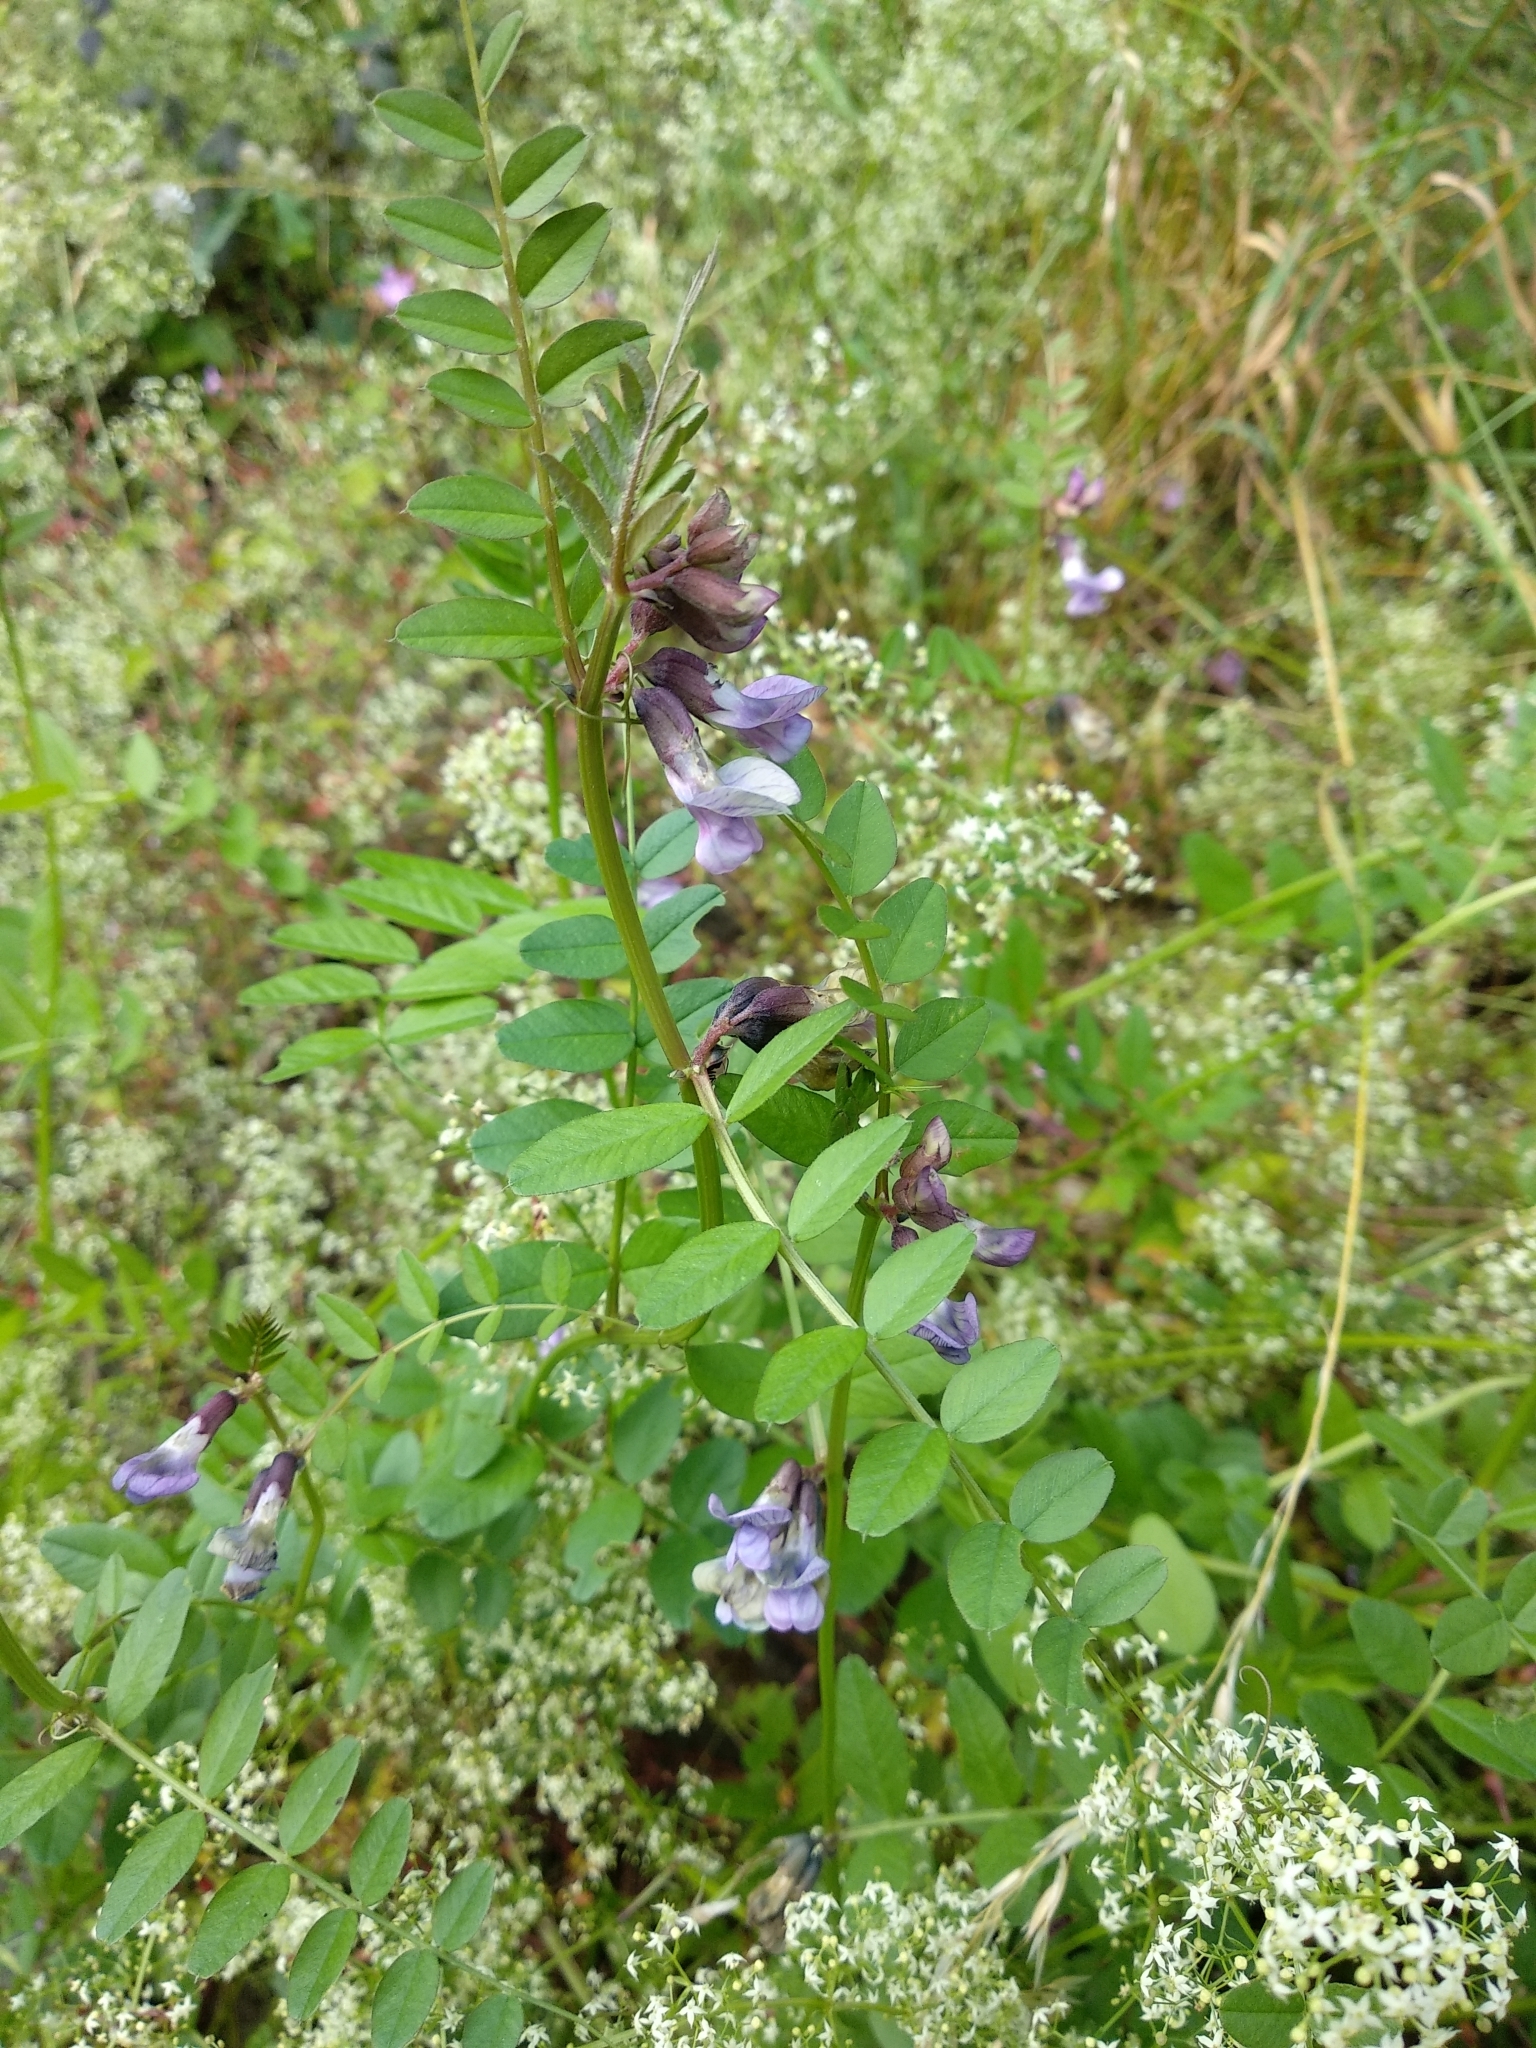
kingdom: Plantae
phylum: Tracheophyta
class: Magnoliopsida
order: Fabales
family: Fabaceae
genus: Vicia
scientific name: Vicia sepium
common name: Bush vetch
